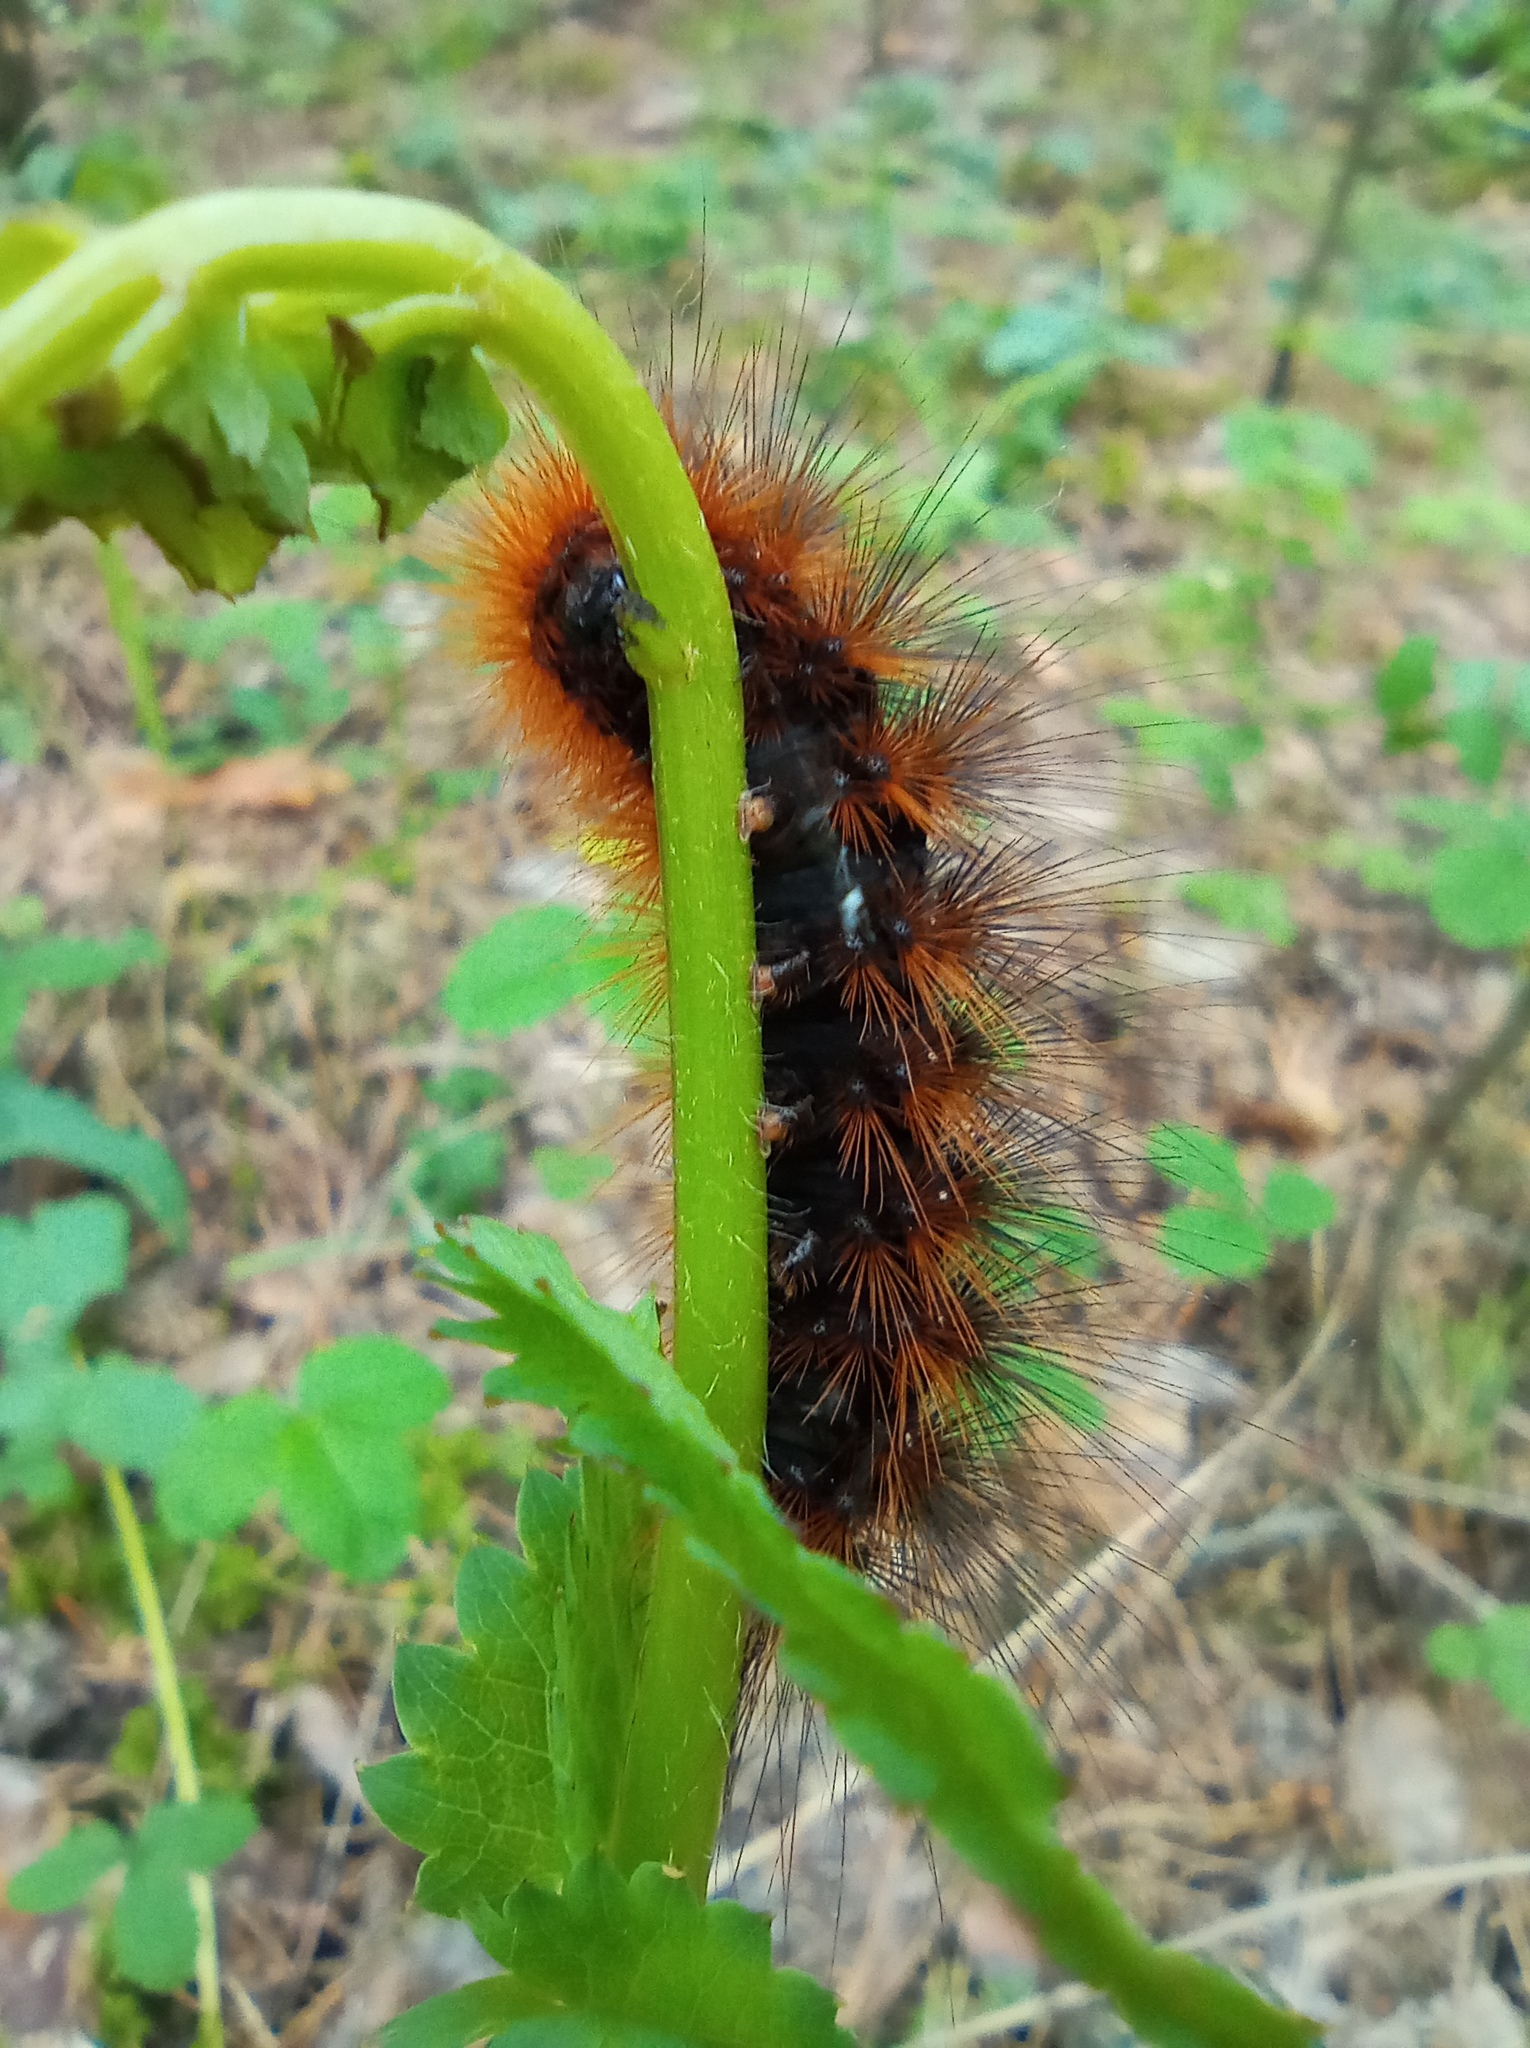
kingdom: Animalia
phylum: Arthropoda
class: Insecta
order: Lepidoptera
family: Erebidae
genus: Arctia
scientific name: Arctia caja
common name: Garden tiger
